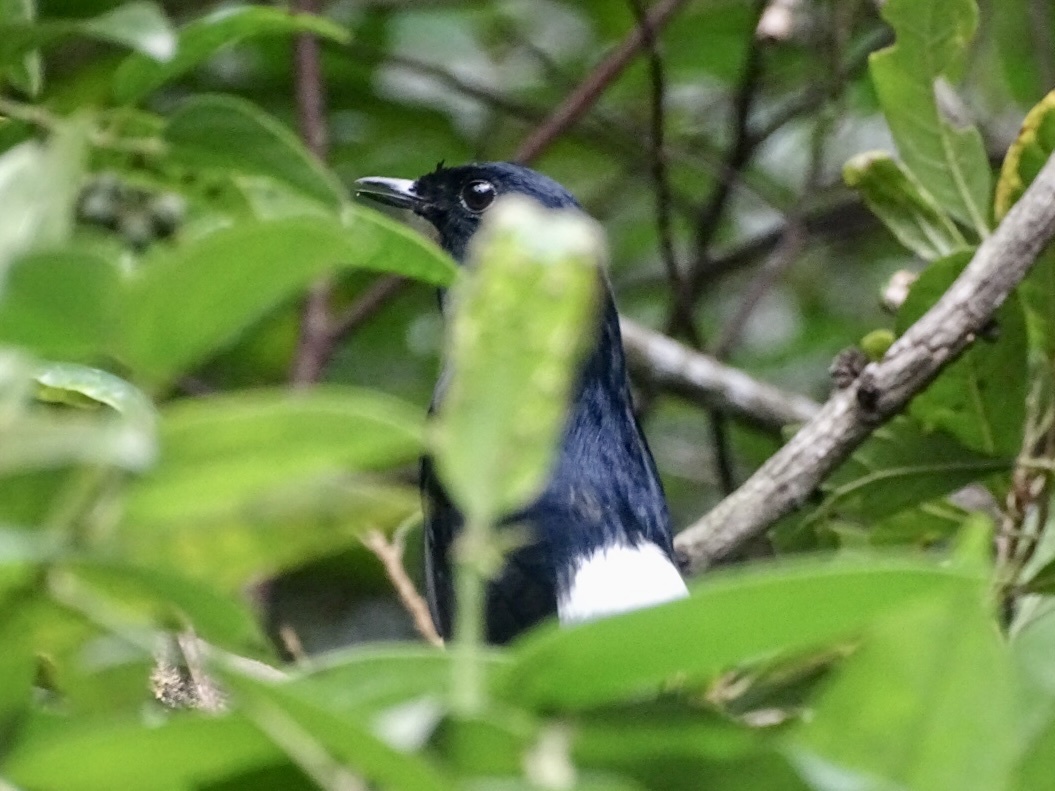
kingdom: Animalia
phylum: Chordata
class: Aves
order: Passeriformes
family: Muscicapidae
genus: Copsychus
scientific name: Copsychus malabaricus
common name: White-rumped shama
